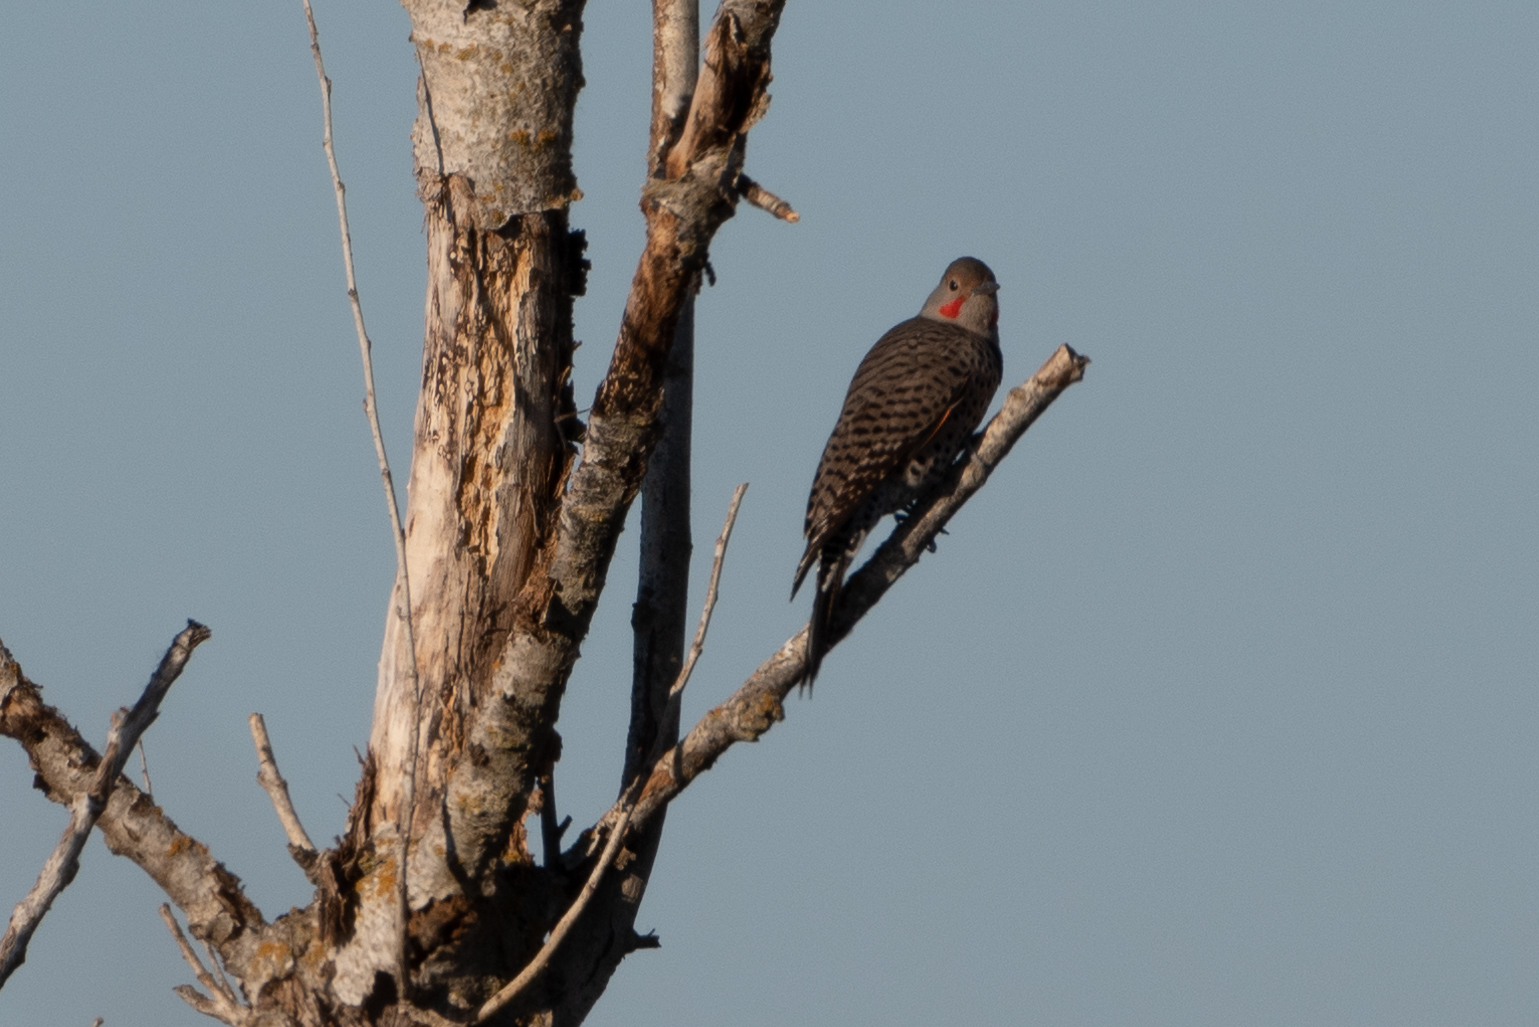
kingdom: Animalia
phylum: Chordata
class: Aves
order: Piciformes
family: Picidae
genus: Colaptes
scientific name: Colaptes auratus
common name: Northern flicker
